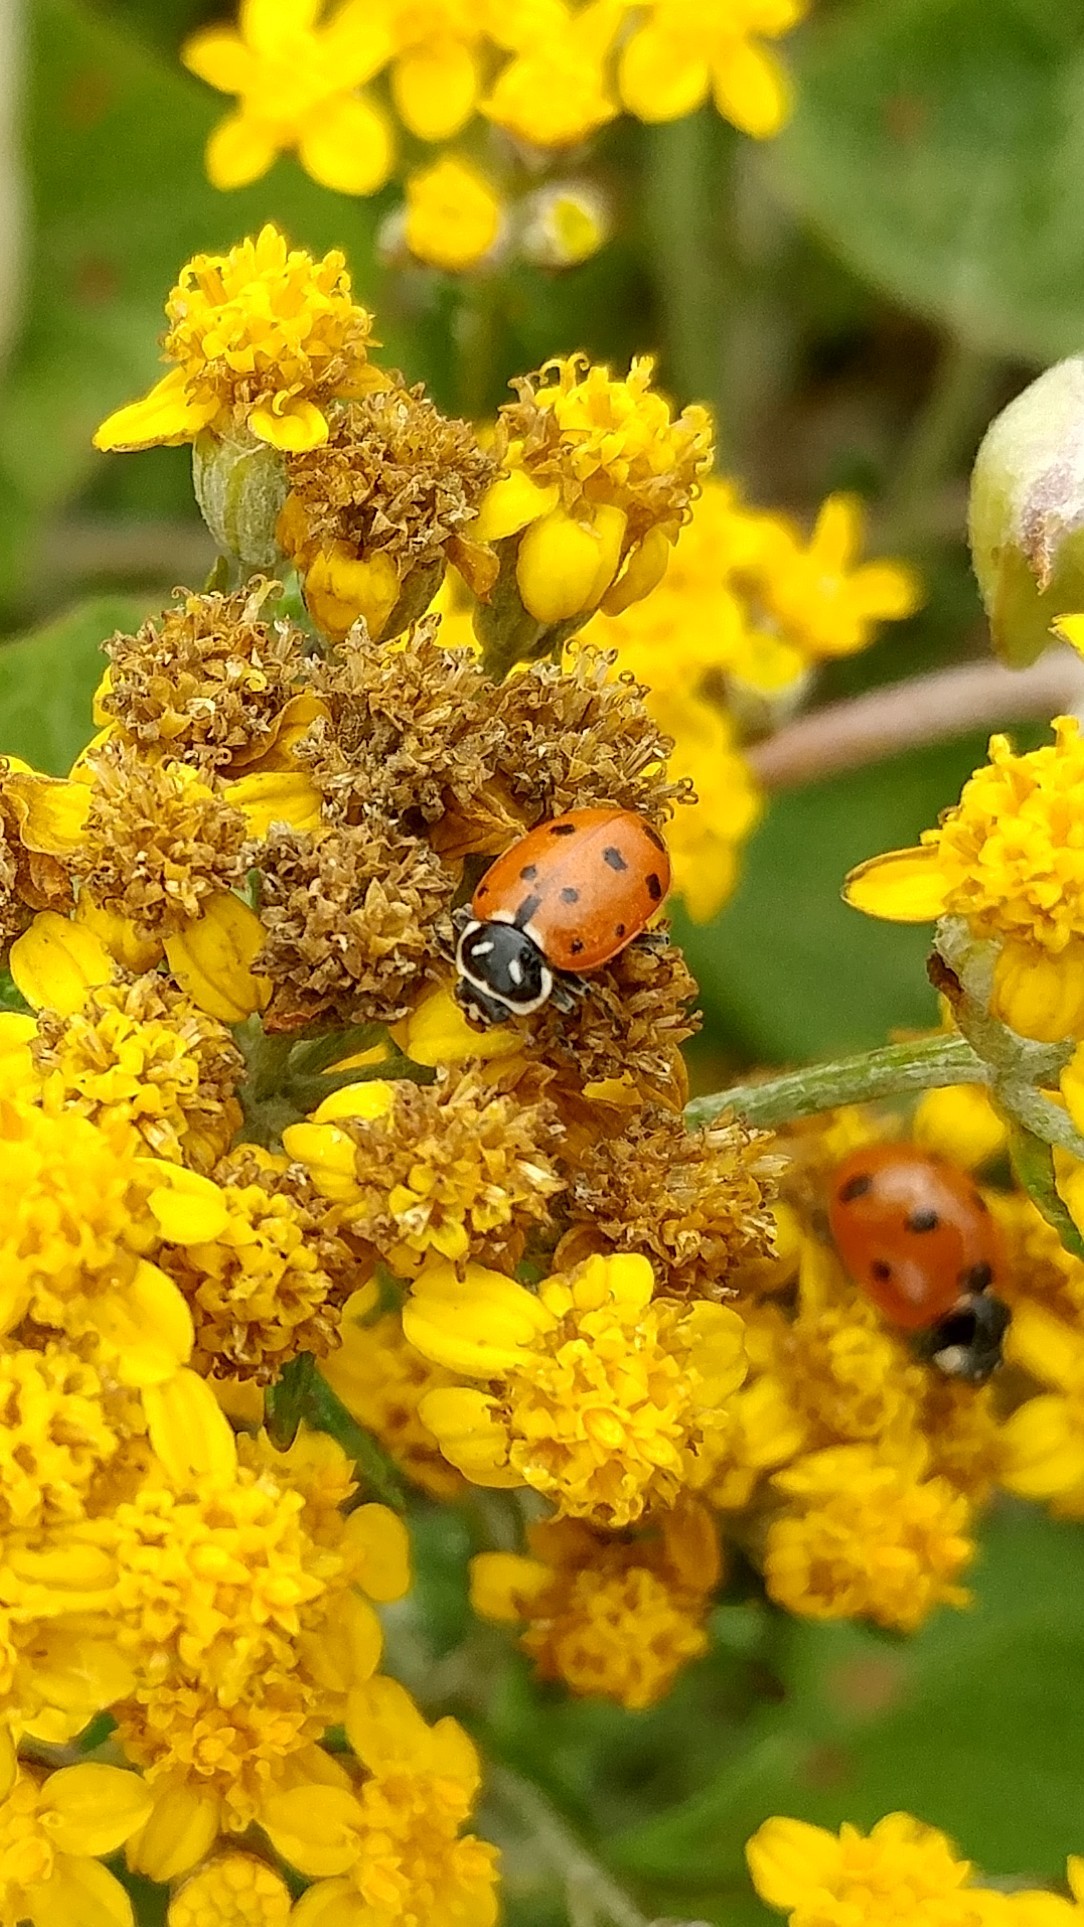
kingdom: Animalia
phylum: Arthropoda
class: Insecta
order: Coleoptera
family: Coccinellidae
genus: Hippodamia
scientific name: Hippodamia convergens
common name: Convergent lady beetle
